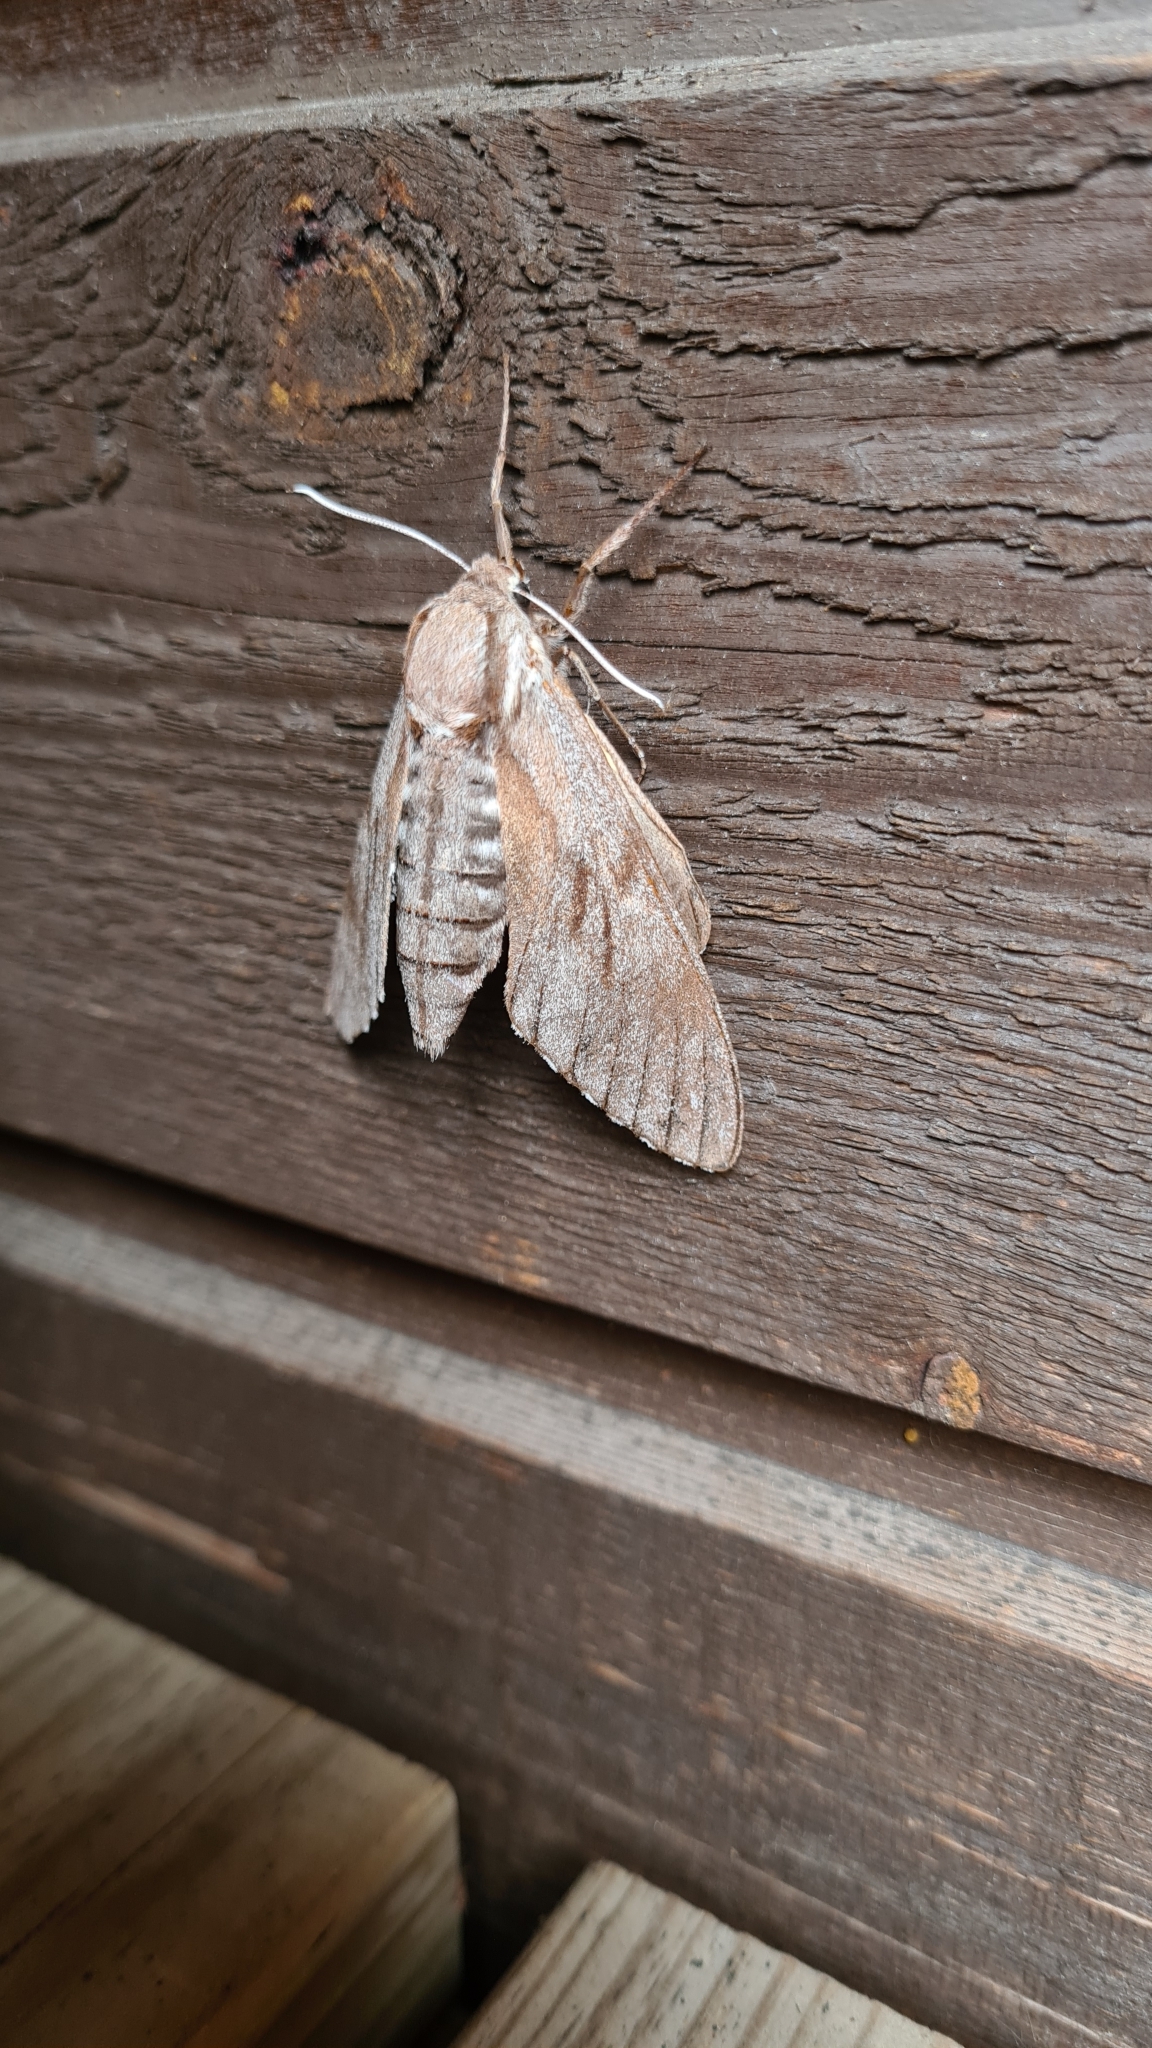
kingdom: Animalia
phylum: Arthropoda
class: Insecta
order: Lepidoptera
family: Sphingidae
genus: Sphinx
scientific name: Sphinx pinastri
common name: Pine hawk-moth
